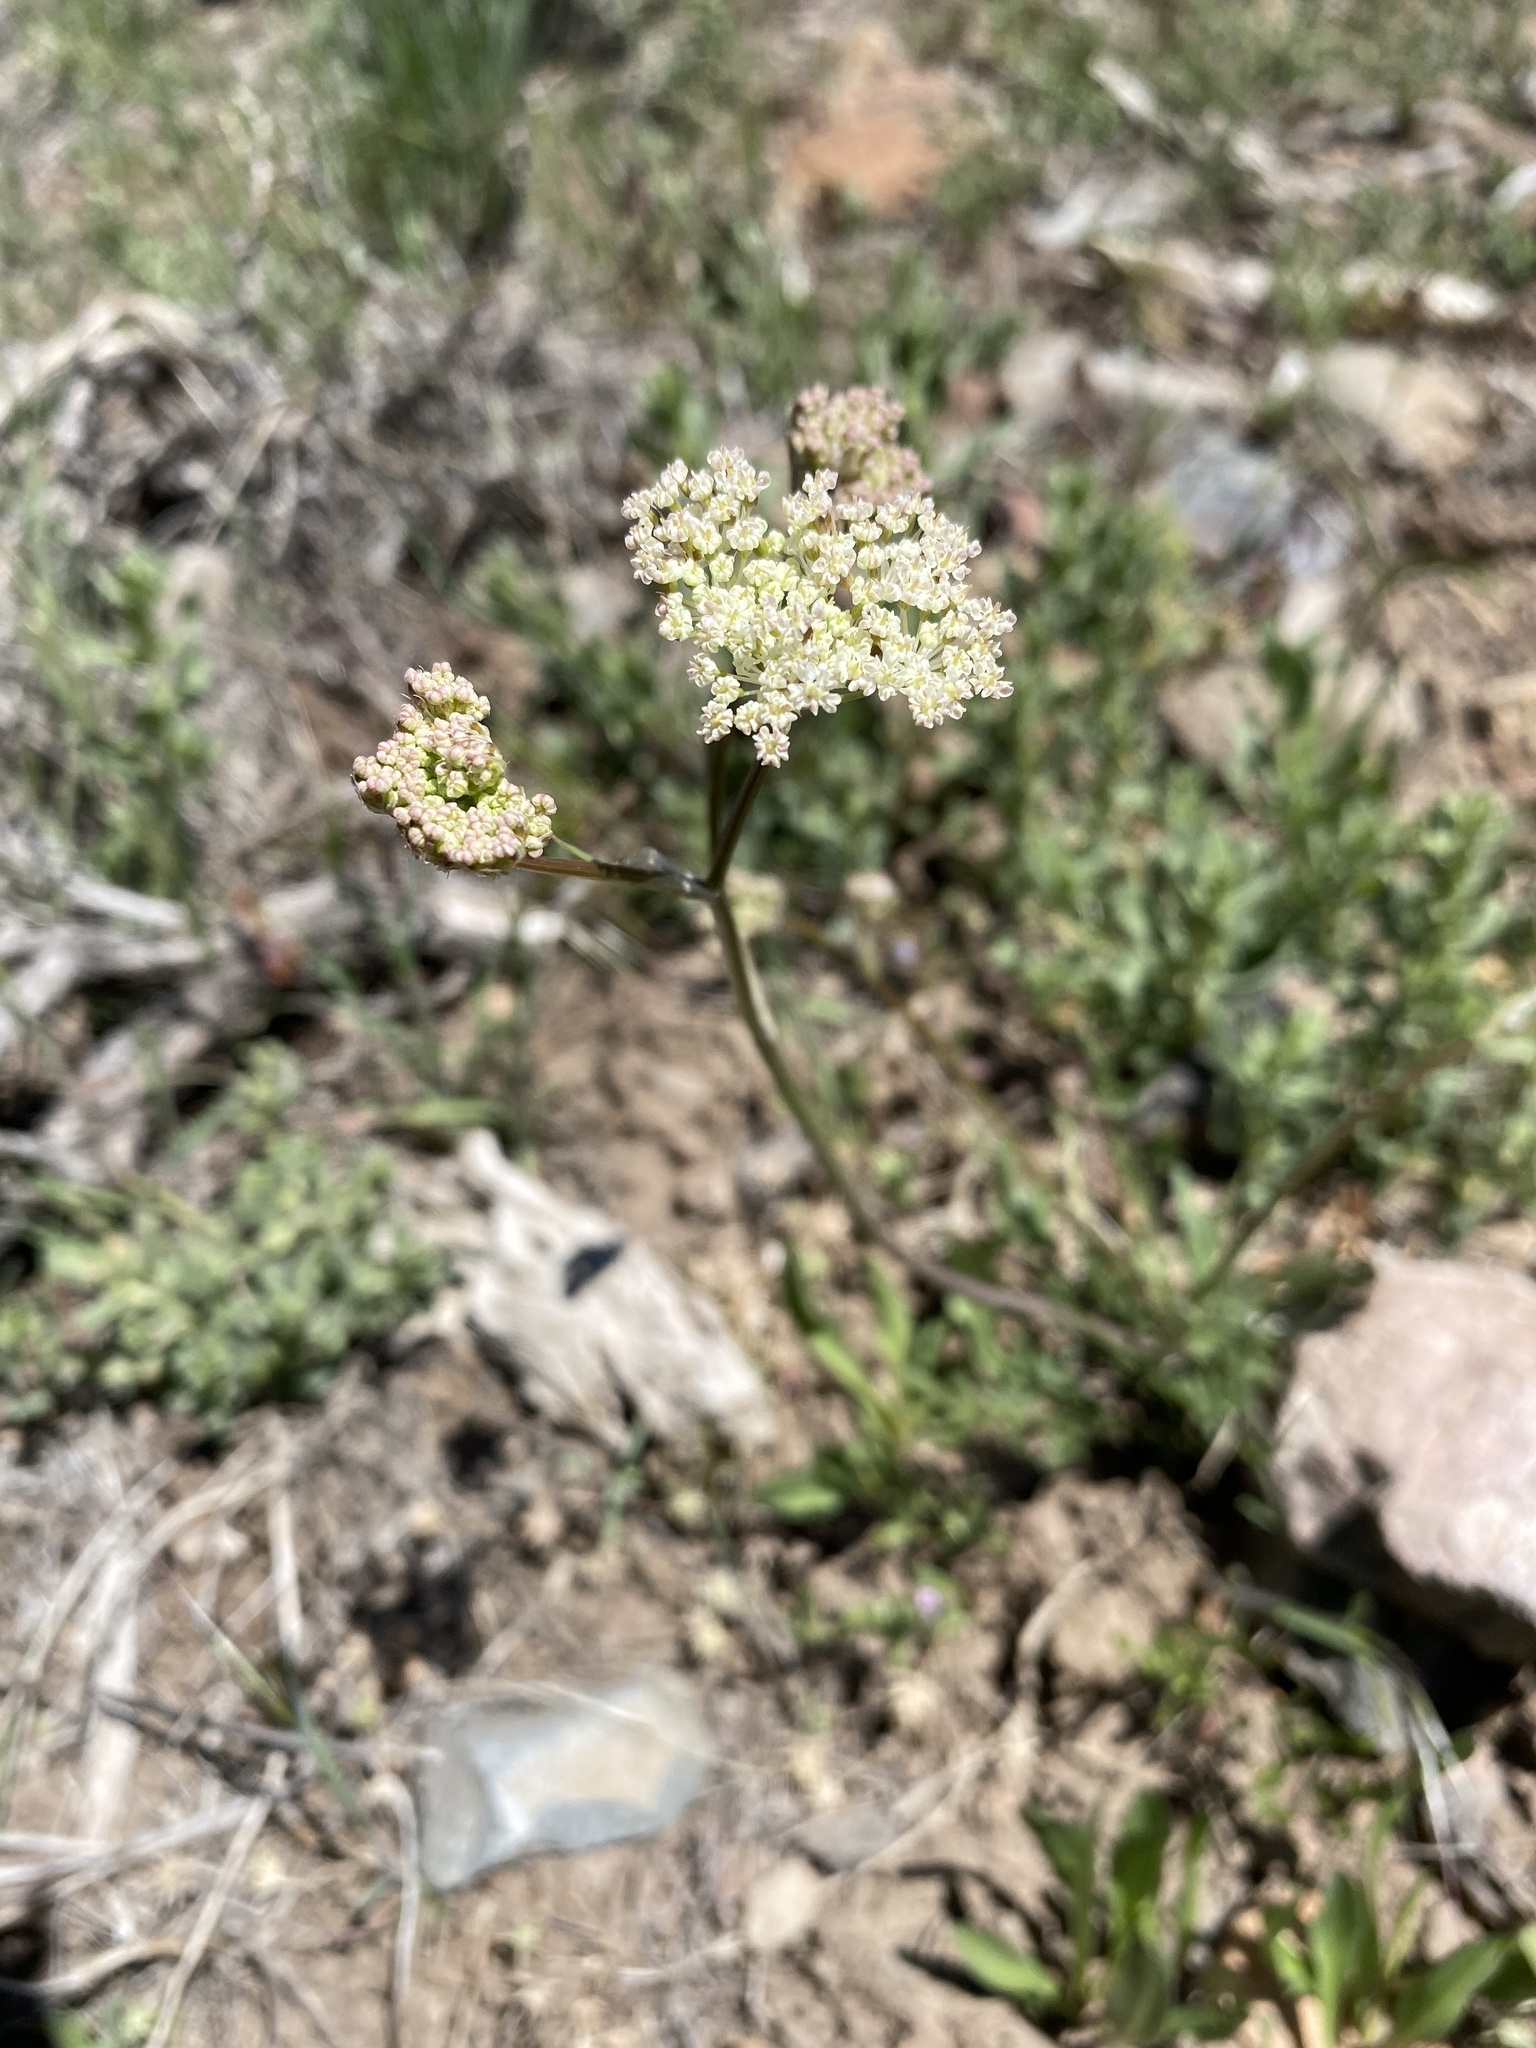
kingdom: Plantae
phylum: Tracheophyta
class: Magnoliopsida
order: Apiales
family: Apiaceae
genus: Perideridia
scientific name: Perideridia bolanderi
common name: Olasi
